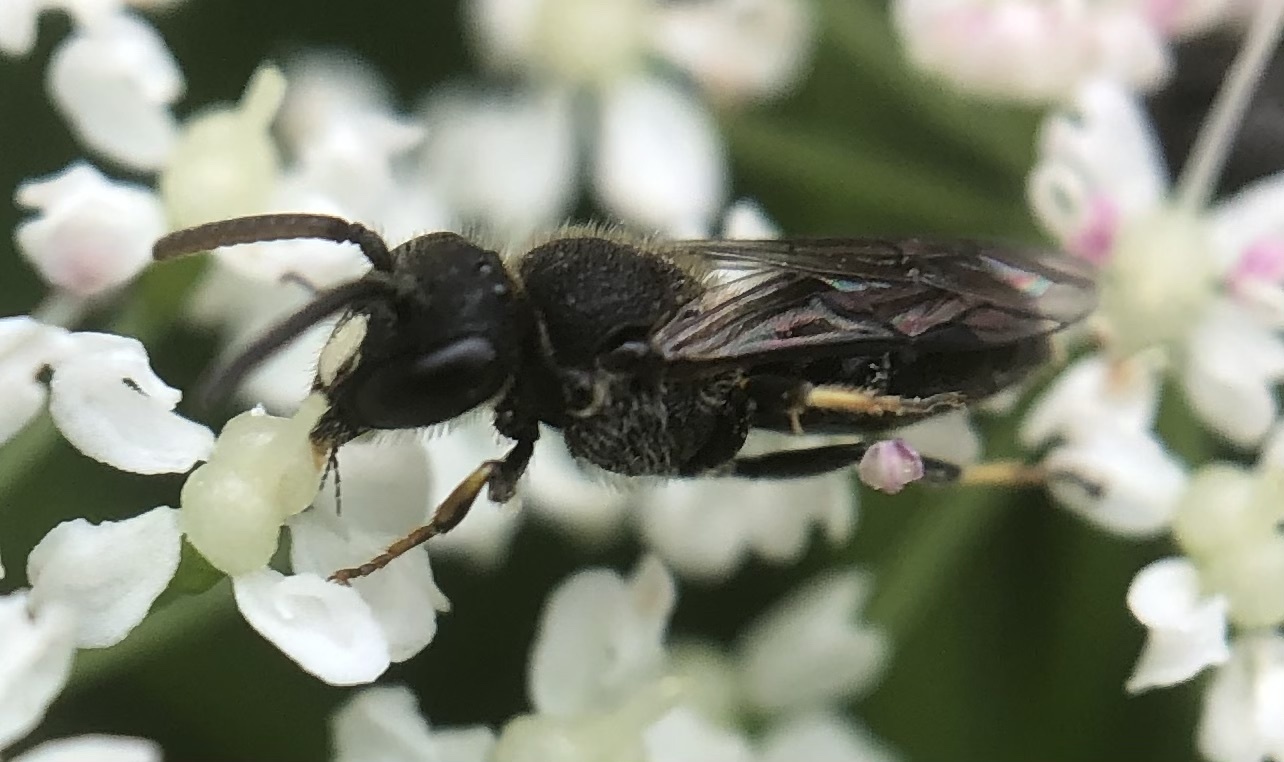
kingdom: Animalia
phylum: Arthropoda
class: Insecta
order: Hymenoptera
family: Colletidae
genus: Hylaeus
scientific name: Hylaeus punctatus
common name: Punctate masked bee
